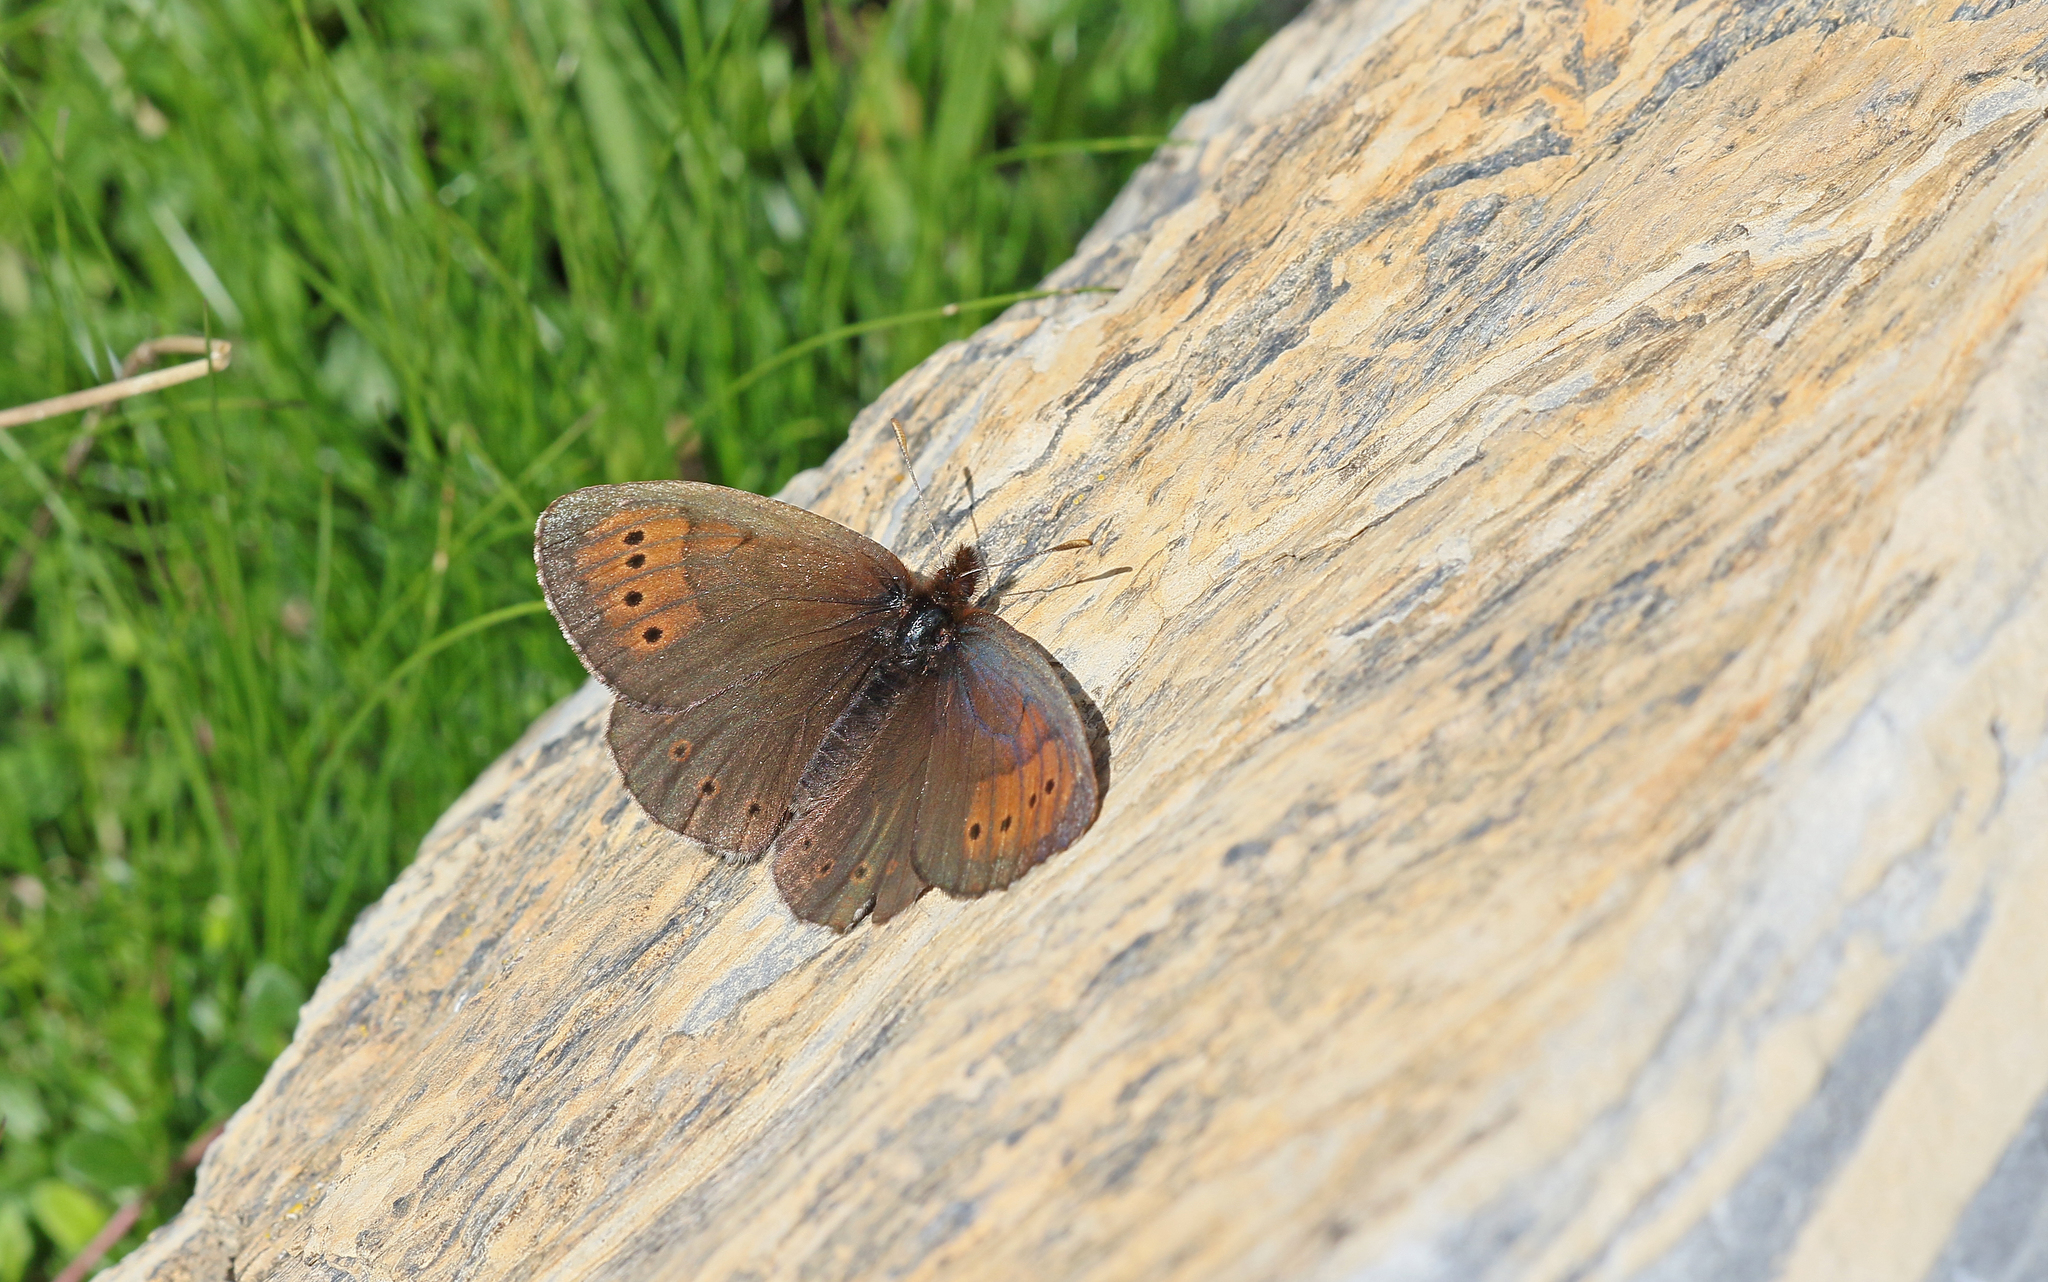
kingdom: Animalia
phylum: Arthropoda
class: Insecta
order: Lepidoptera
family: Nymphalidae
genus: Erebia
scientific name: Erebia pandrose
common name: Dewy ringlet
